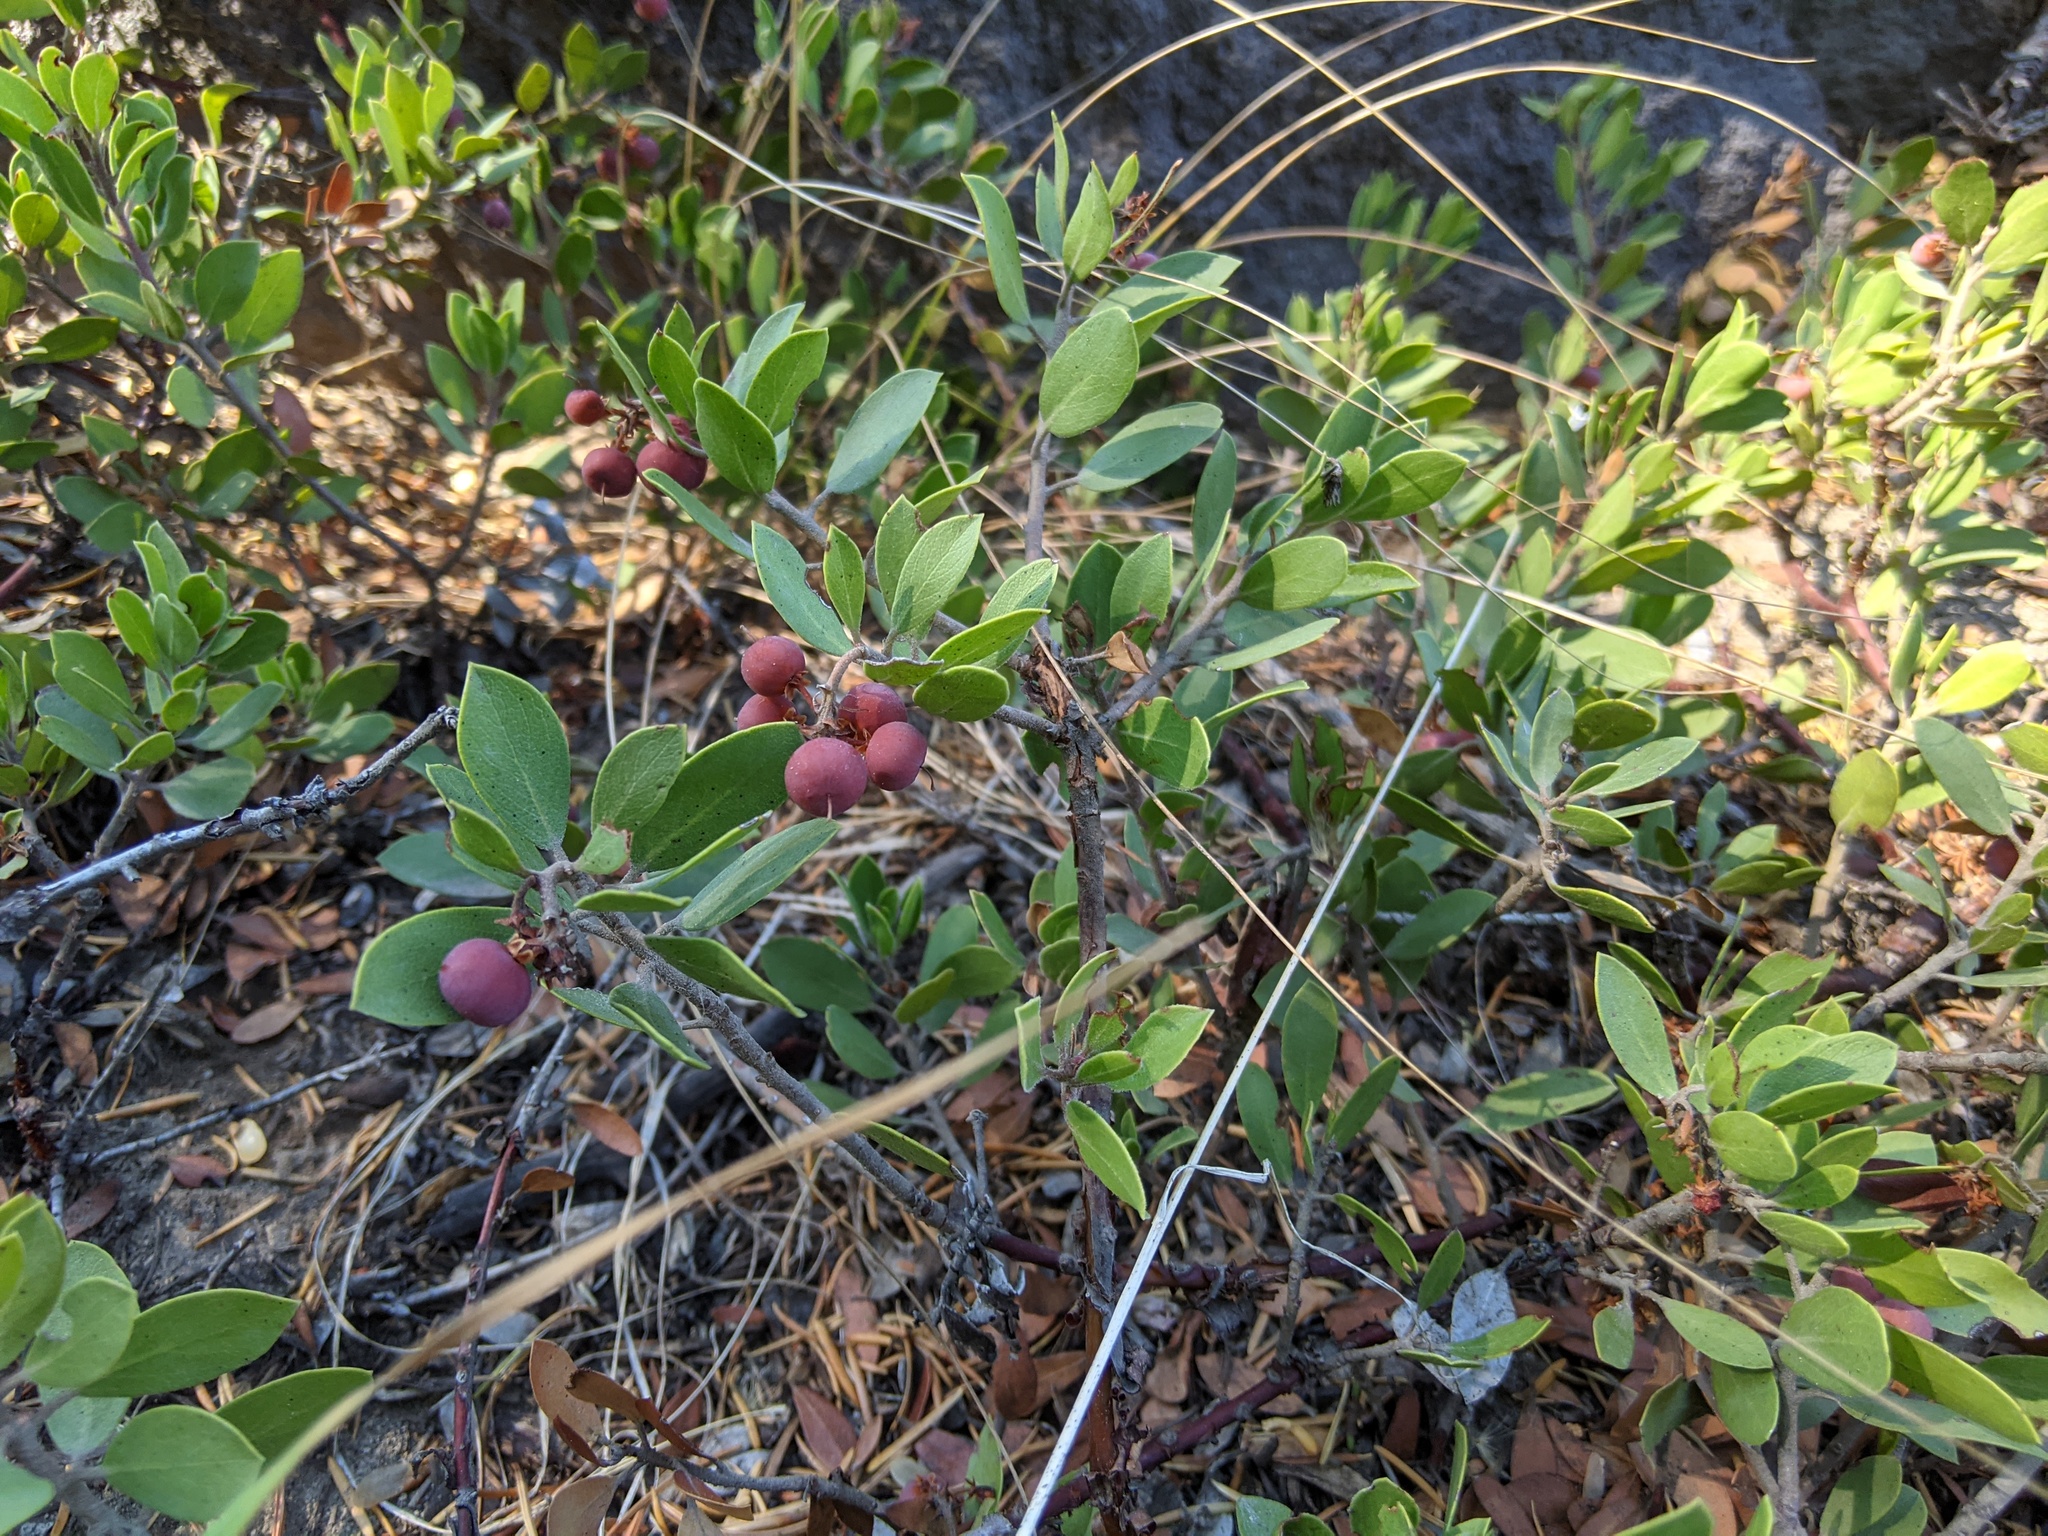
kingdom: Plantae
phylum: Tracheophyta
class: Magnoliopsida
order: Ericales
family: Ericaceae
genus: Arctostaphylos
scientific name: Arctostaphylos nevadensis
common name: Pinemat manzanita
